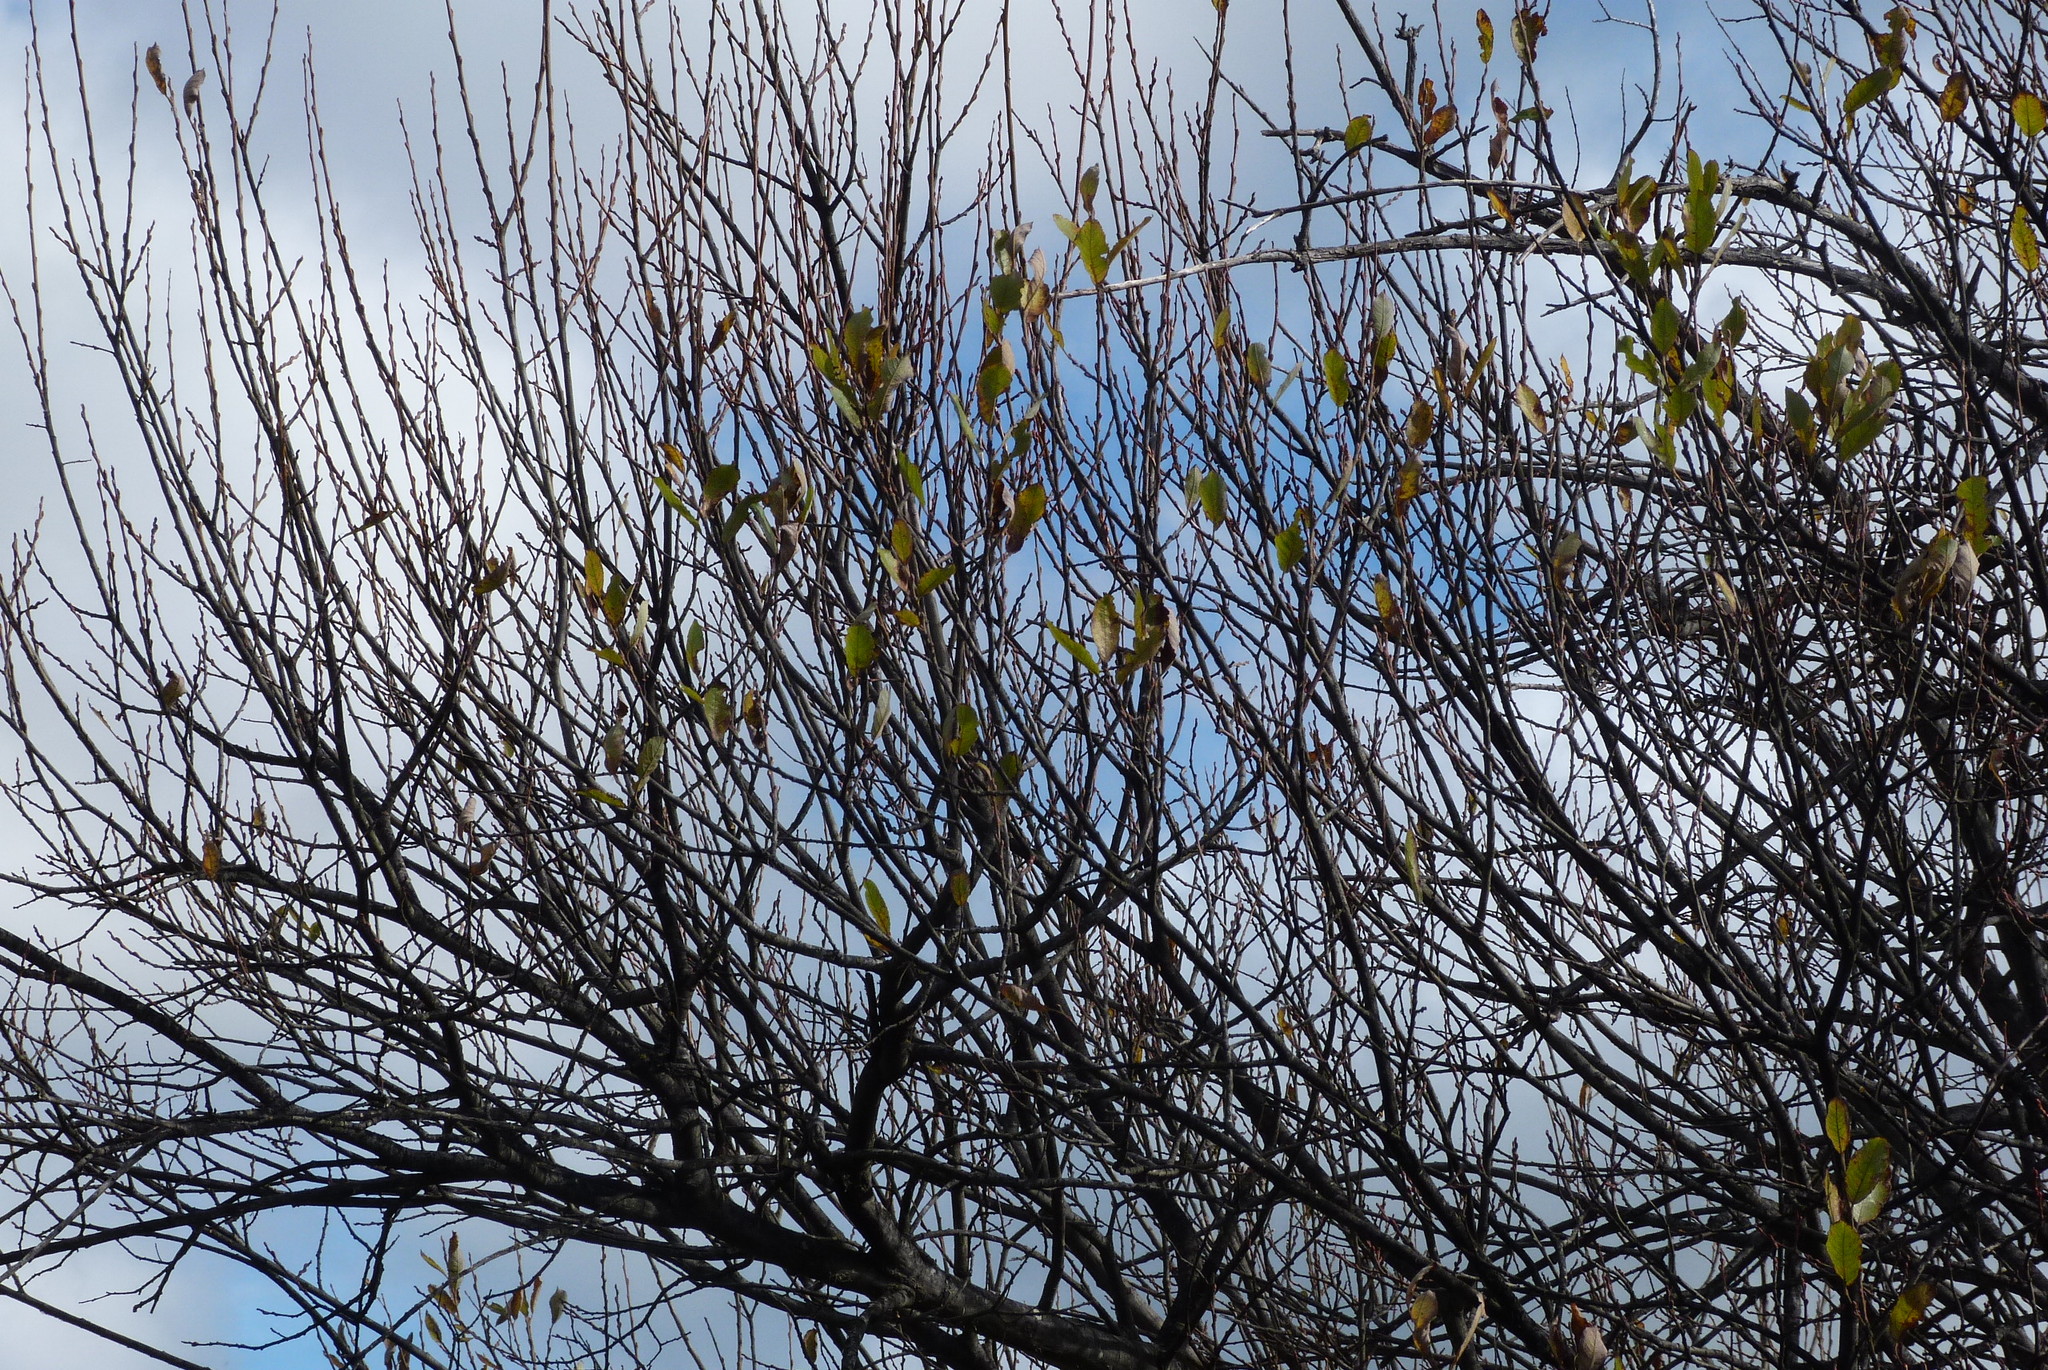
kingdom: Plantae
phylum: Tracheophyta
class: Magnoliopsida
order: Malpighiales
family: Salicaceae
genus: Salix
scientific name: Salix cinerea
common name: Common sallow
